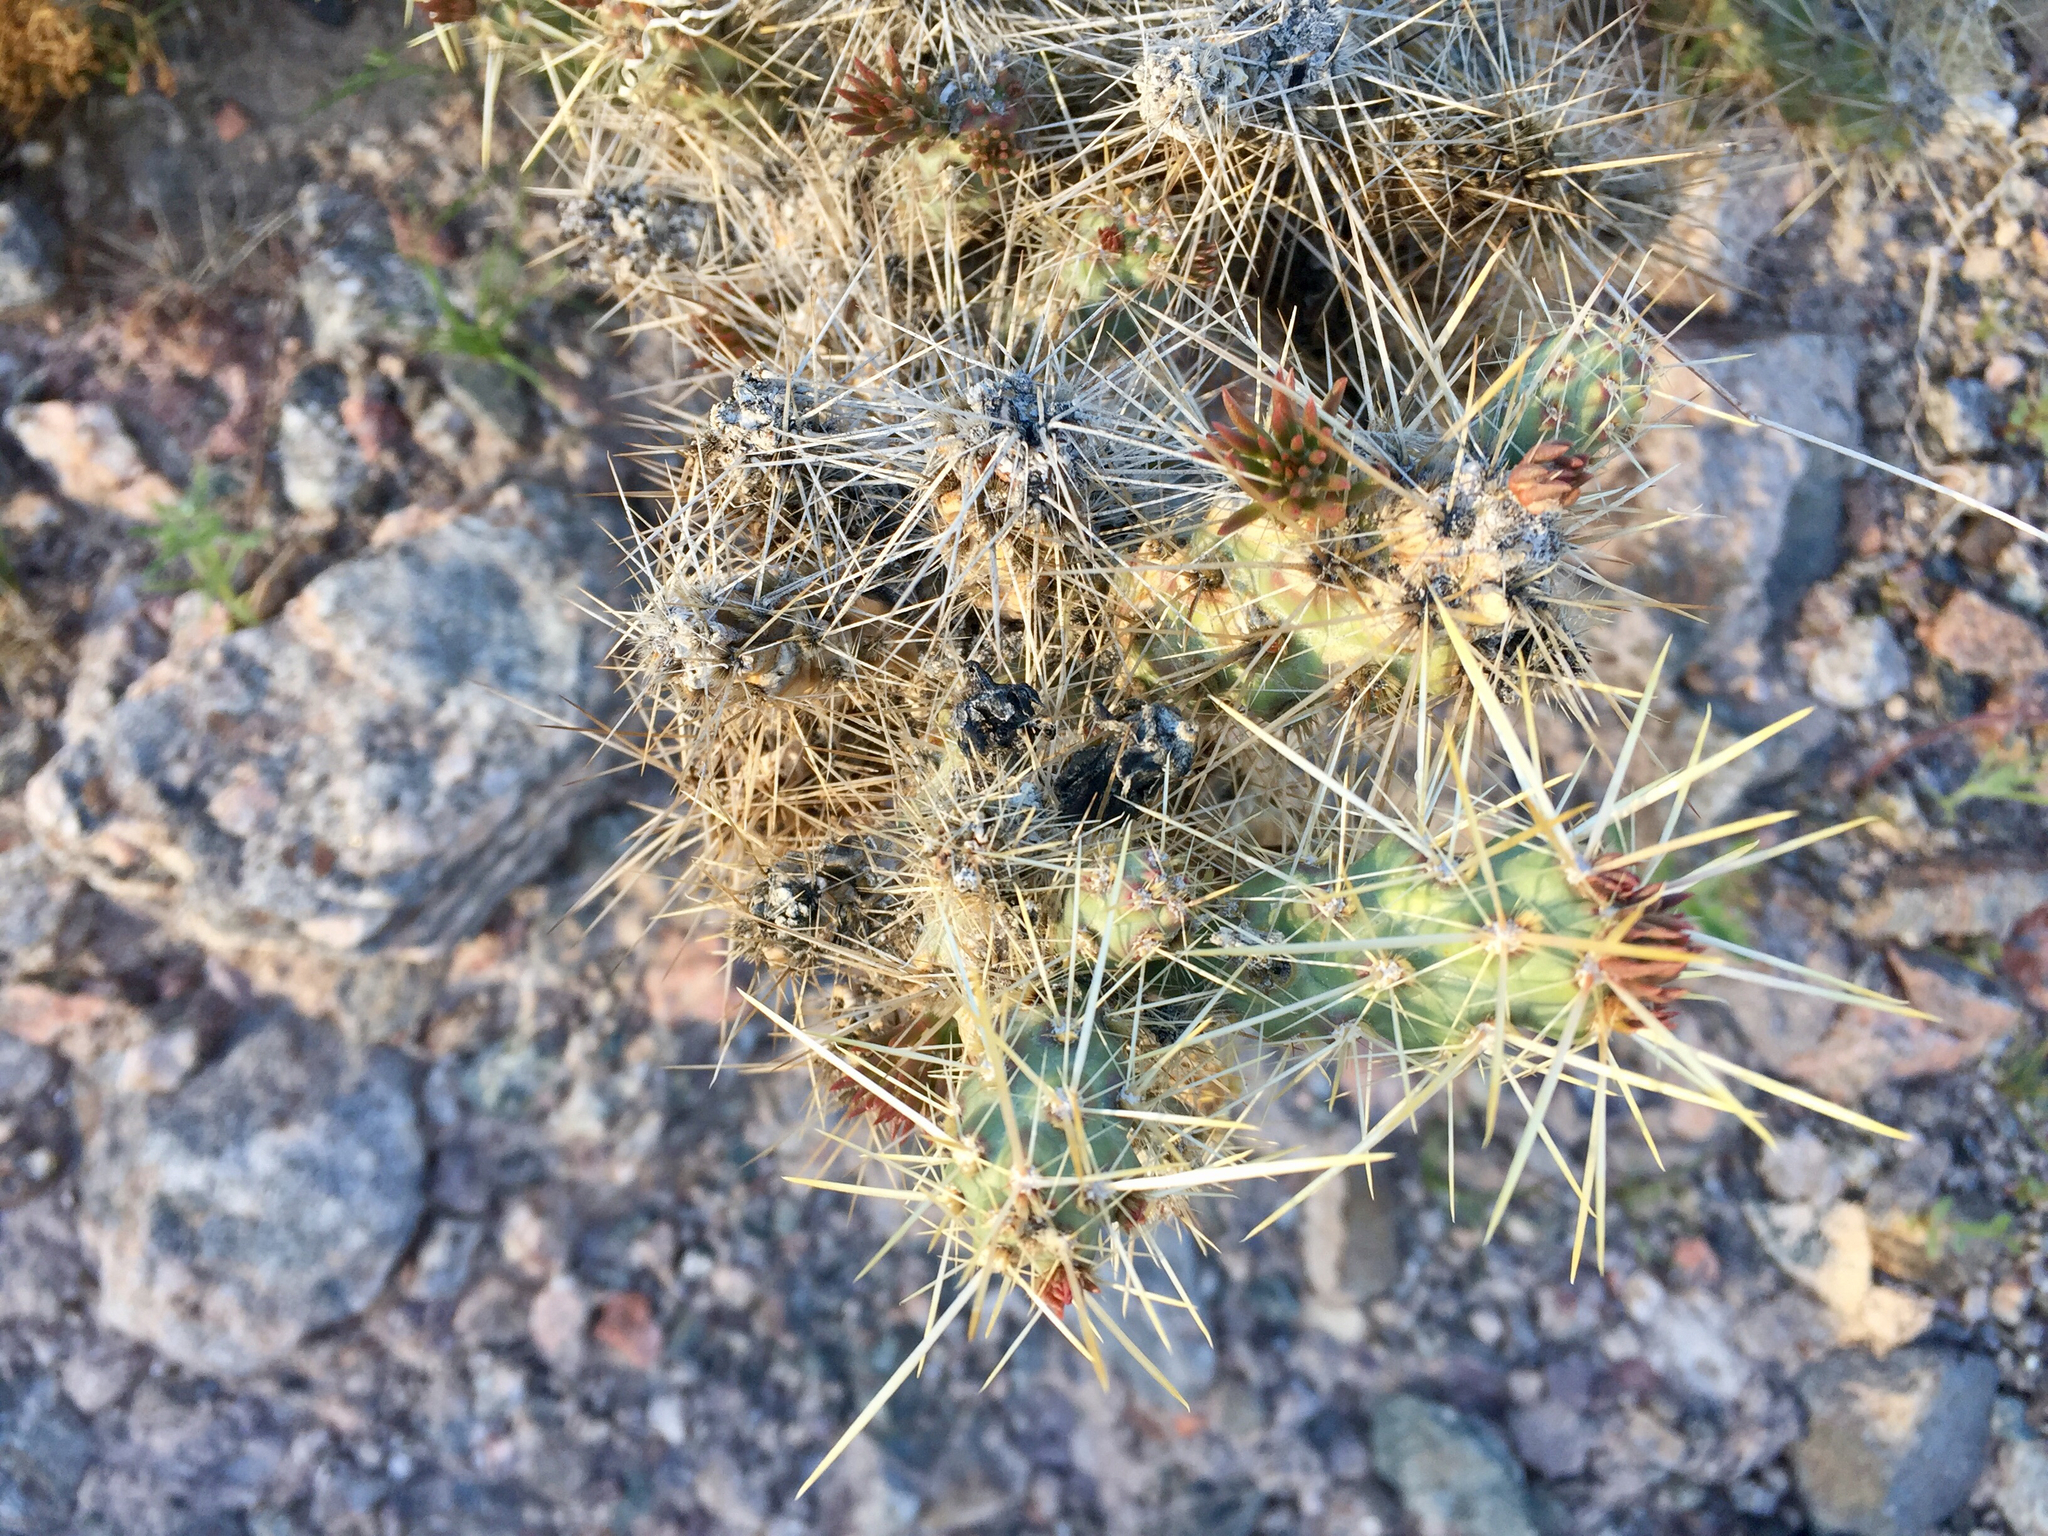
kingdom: Plantae
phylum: Tracheophyta
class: Magnoliopsida
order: Caryophyllales
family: Cactaceae
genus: Cylindropuntia
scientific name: Cylindropuntia echinocarpa
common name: Ground cholla
